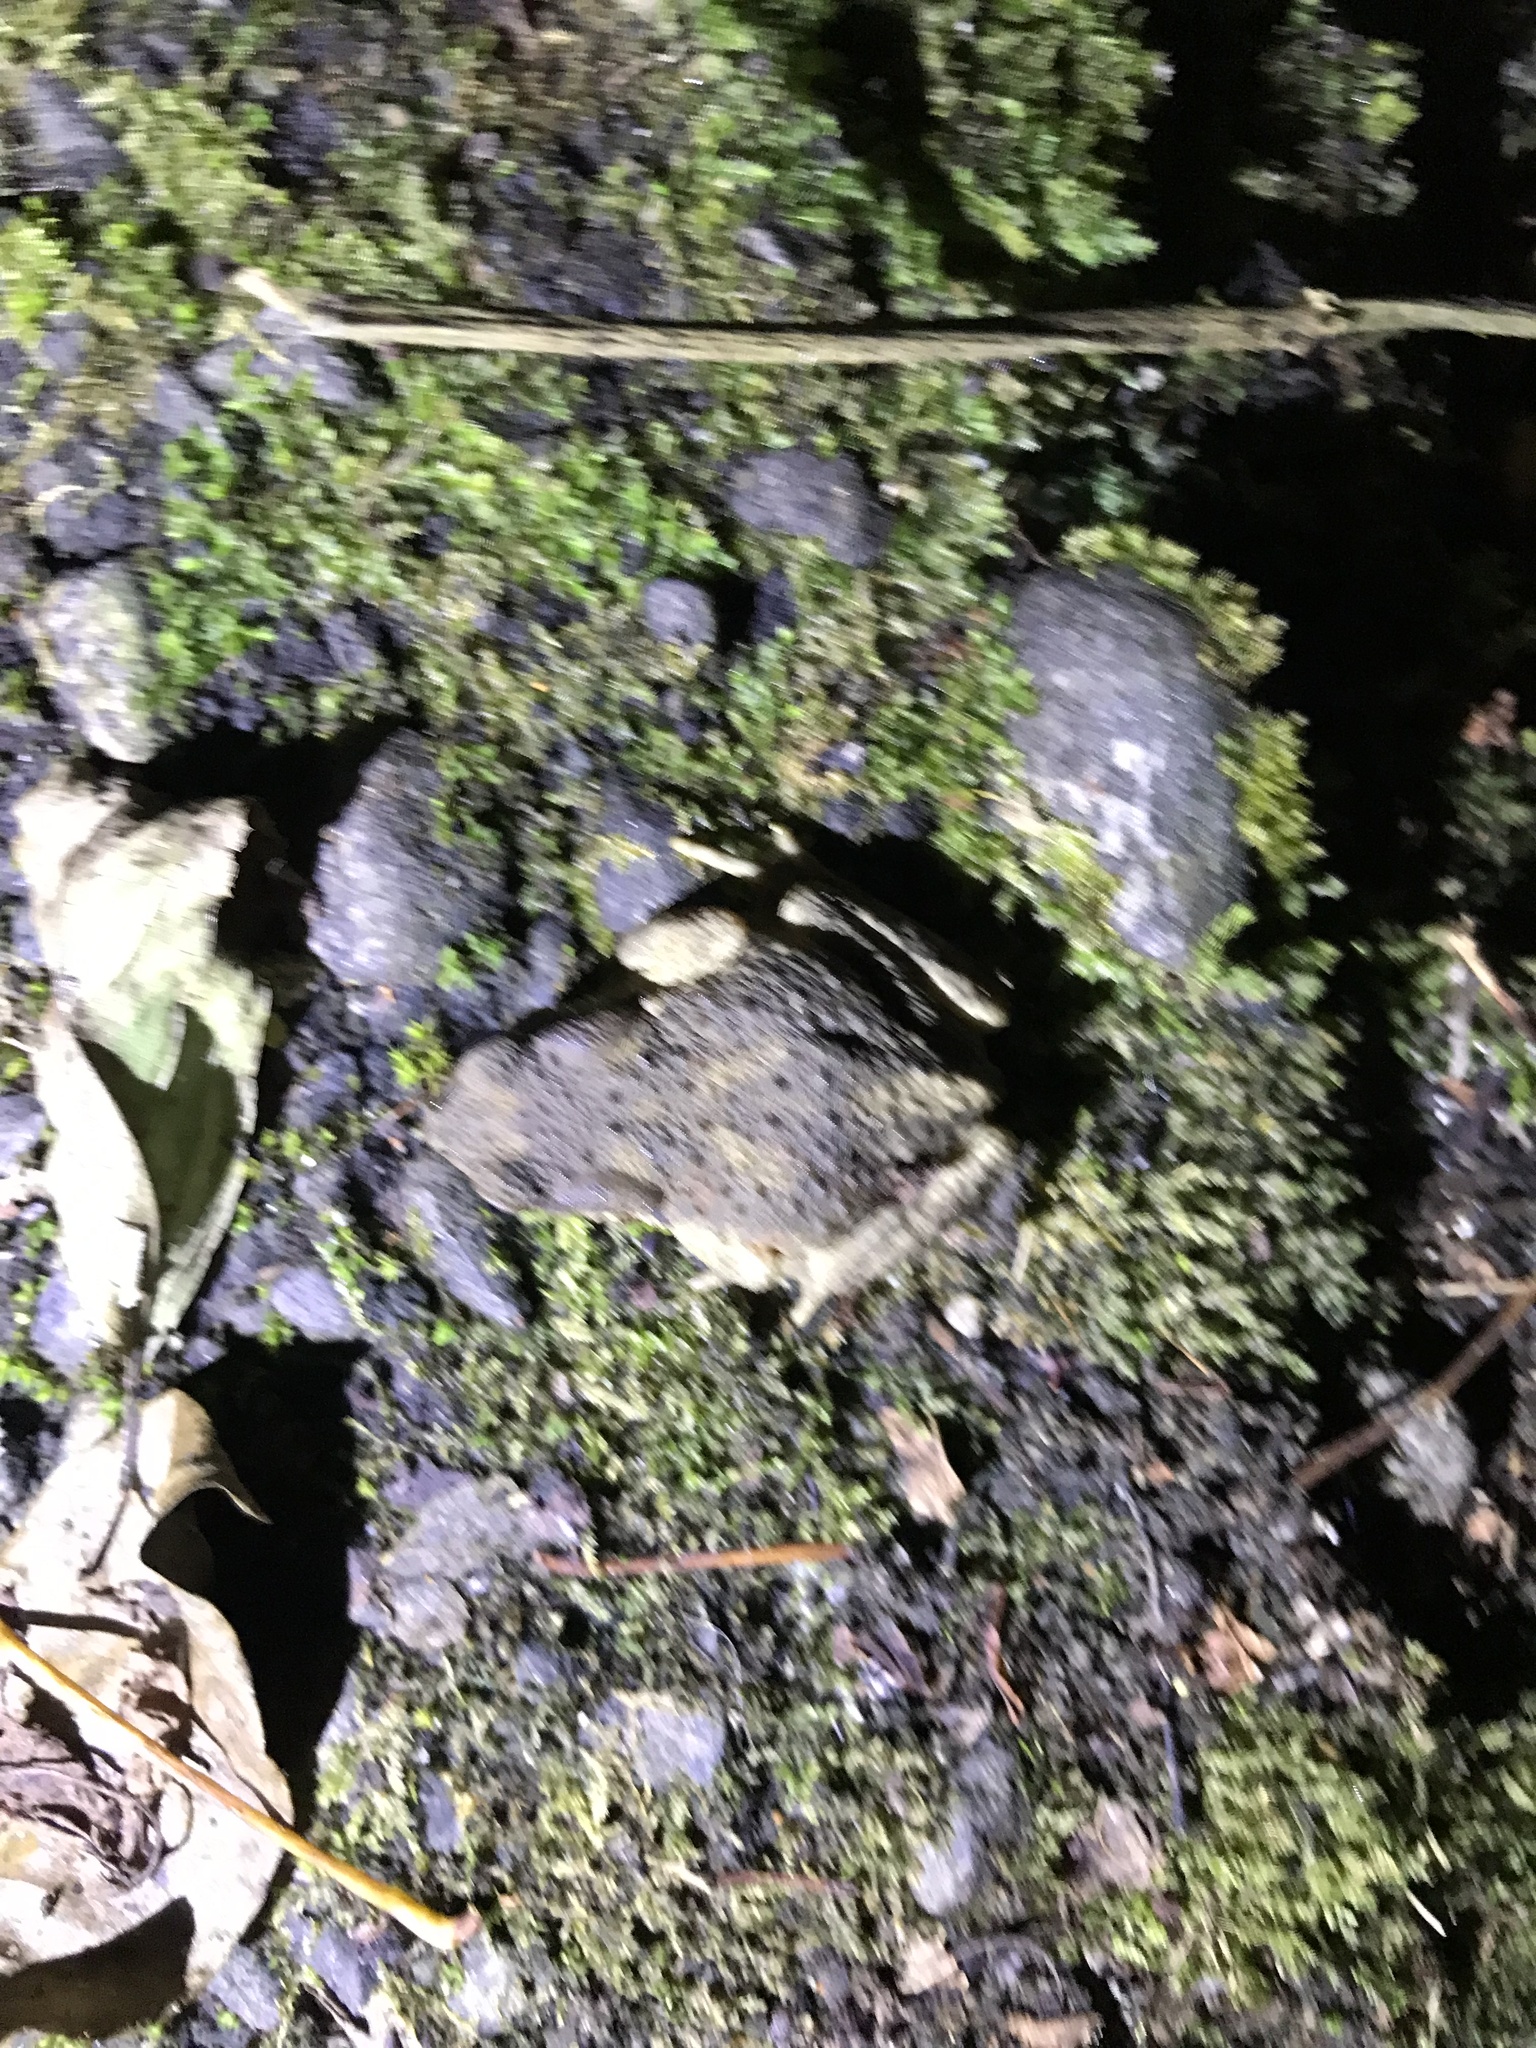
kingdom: Animalia
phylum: Chordata
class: Amphibia
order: Anura
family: Bufonidae
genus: Bufo
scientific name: Bufo bankorensis
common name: Bankor toad
